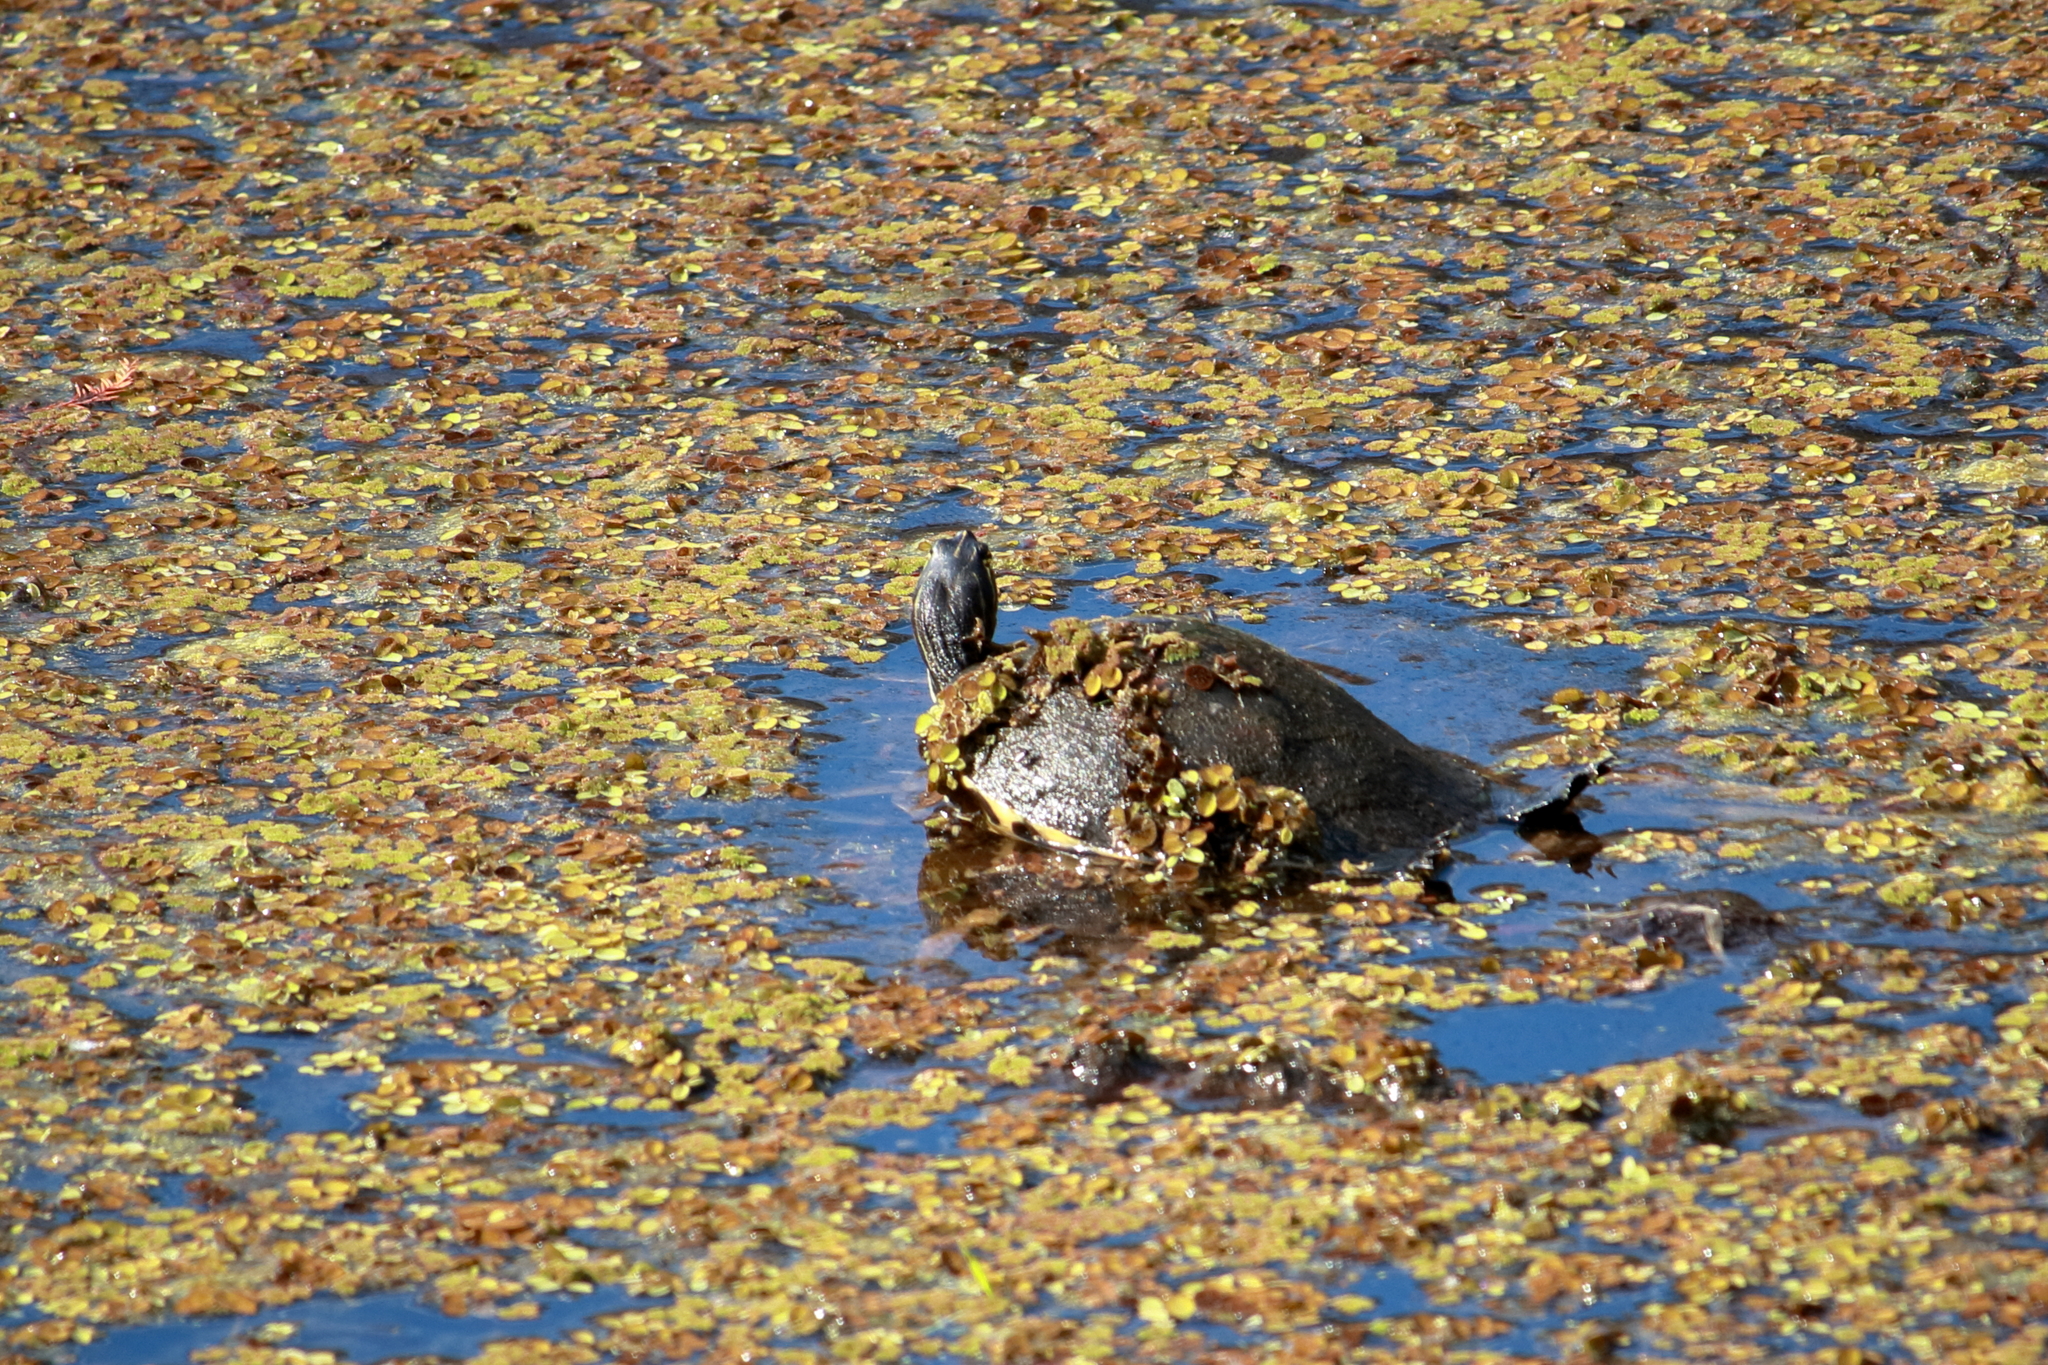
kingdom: Animalia
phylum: Chordata
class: Testudines
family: Emydidae
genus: Pseudemys
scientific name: Pseudemys nelsoni
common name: Florida red-bellied turtle
